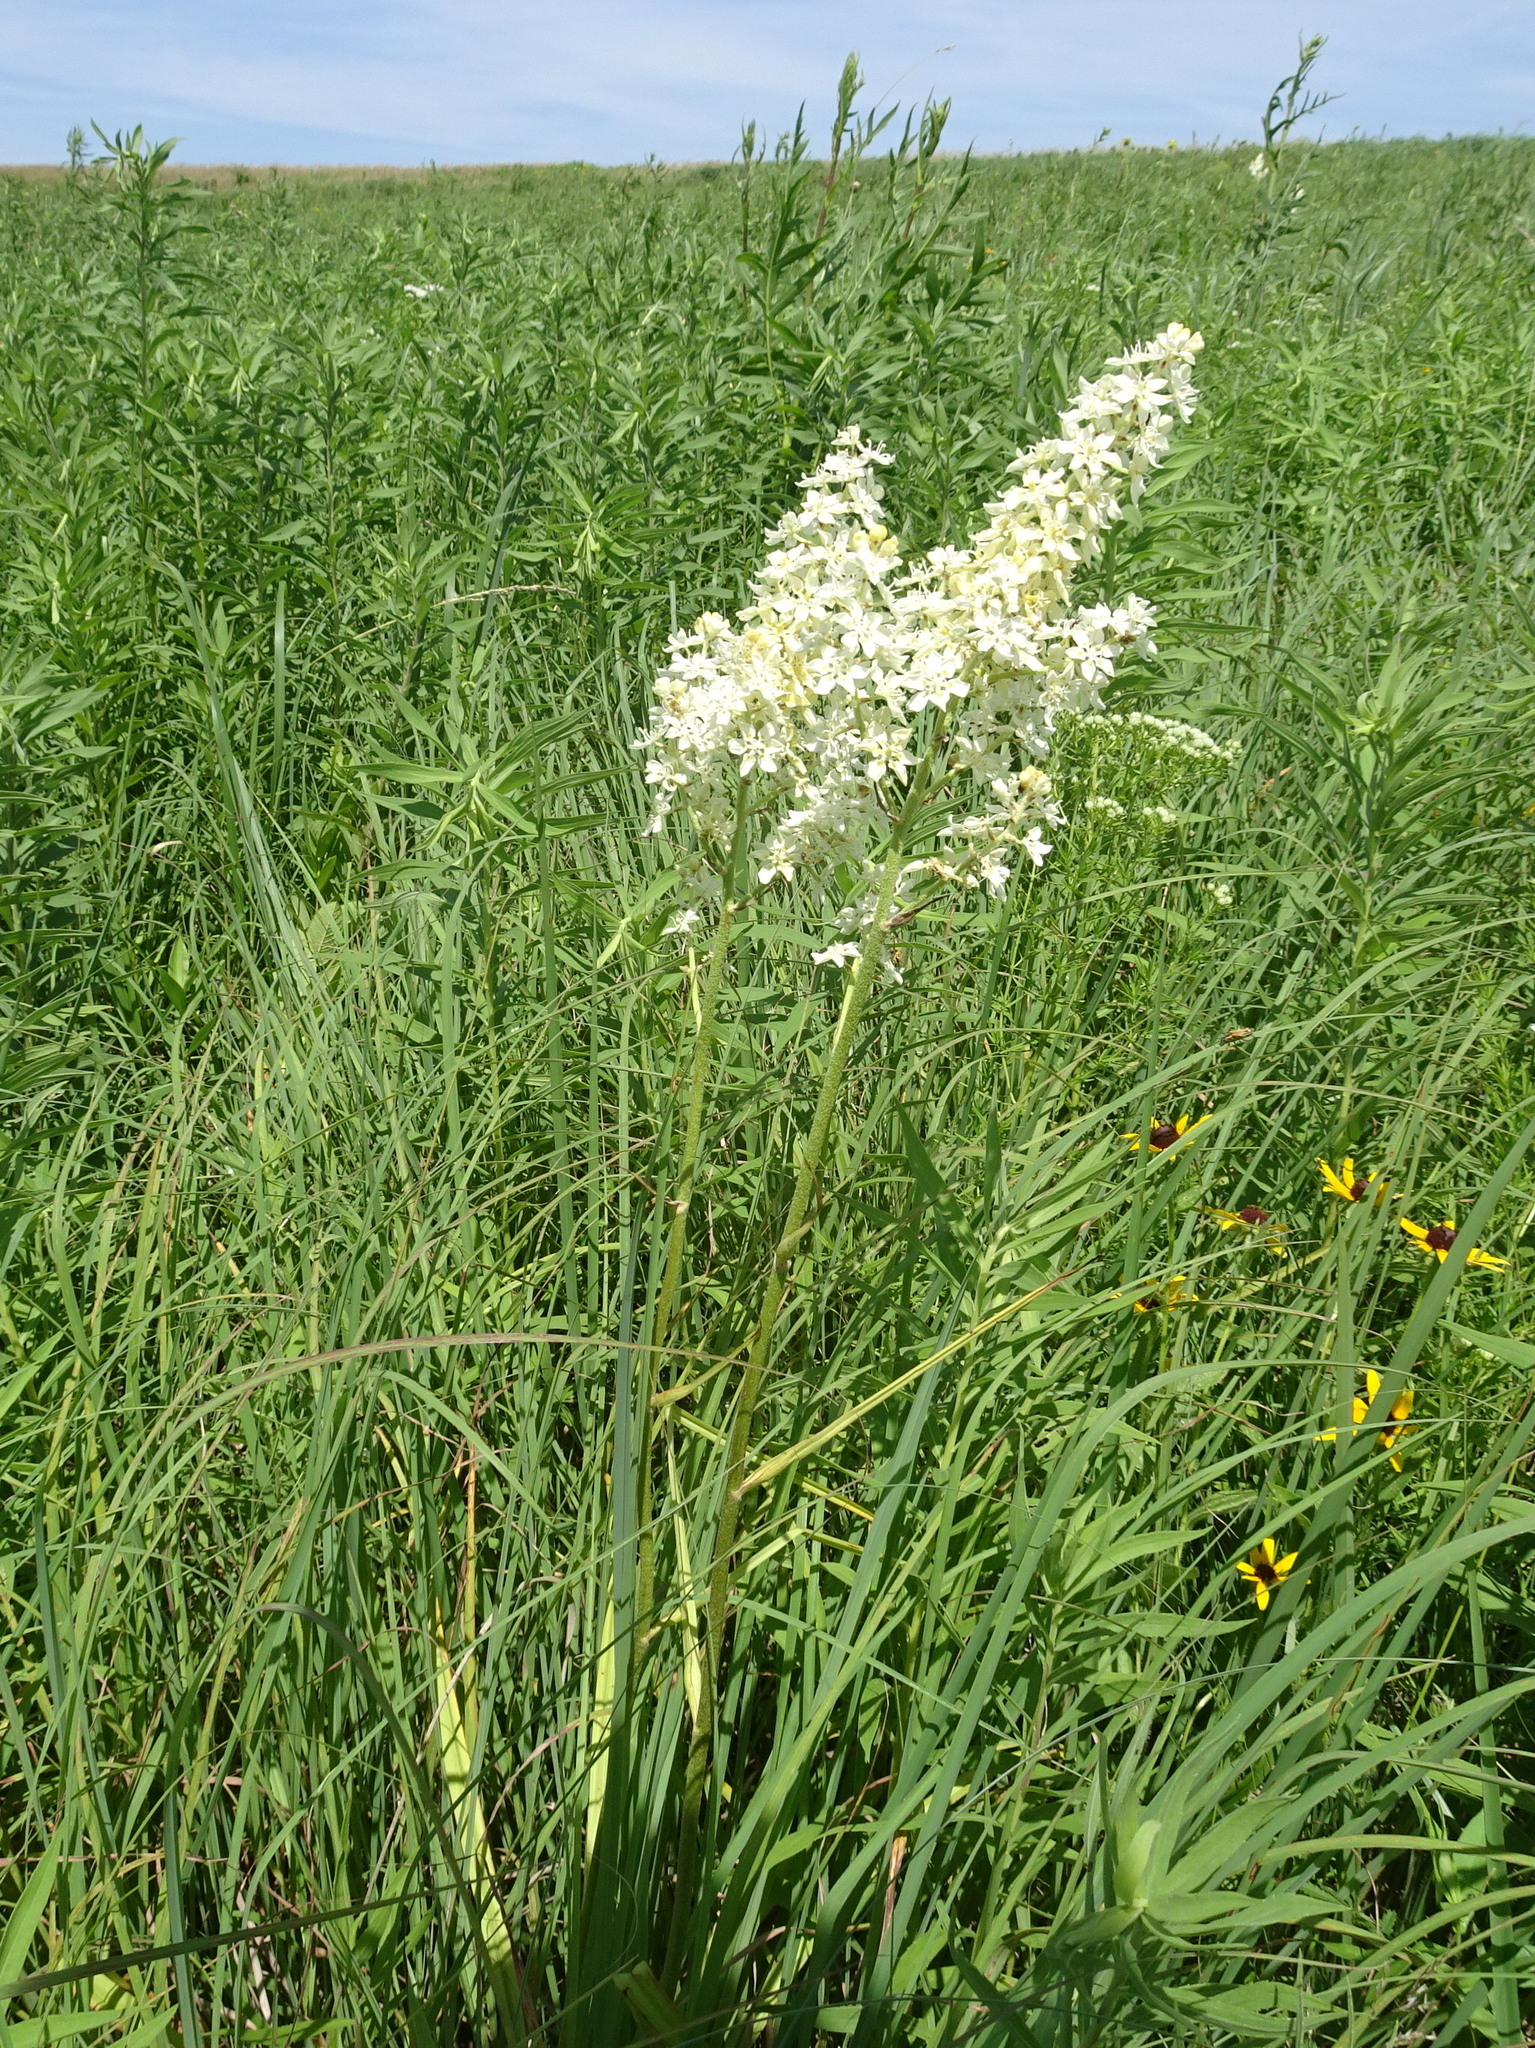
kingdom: Plantae
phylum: Tracheophyta
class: Liliopsida
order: Liliales
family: Melanthiaceae
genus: Melanthium
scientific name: Melanthium virginicum
